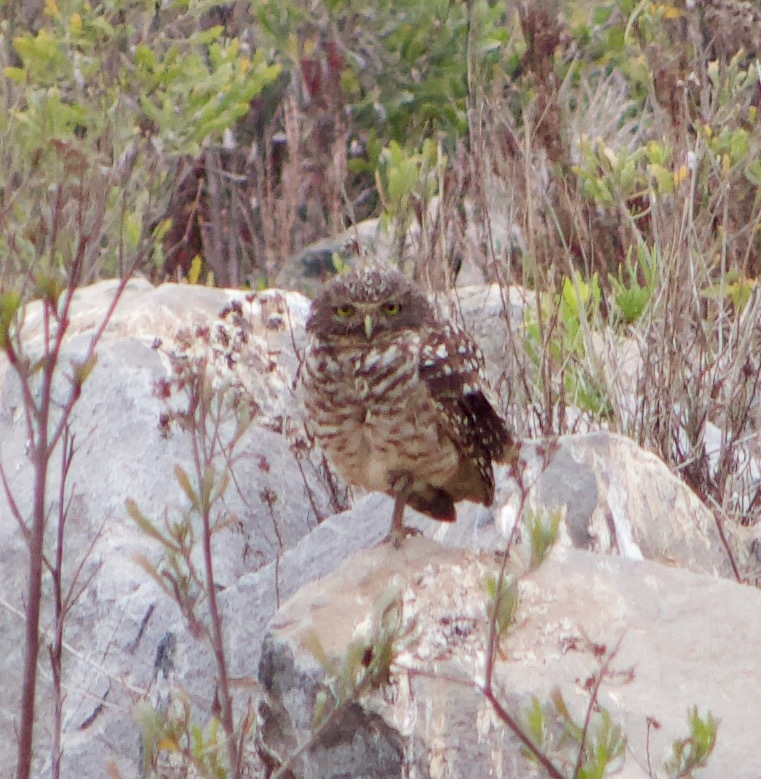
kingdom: Animalia
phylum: Chordata
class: Aves
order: Strigiformes
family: Strigidae
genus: Athene
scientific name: Athene cunicularia
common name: Burrowing owl
